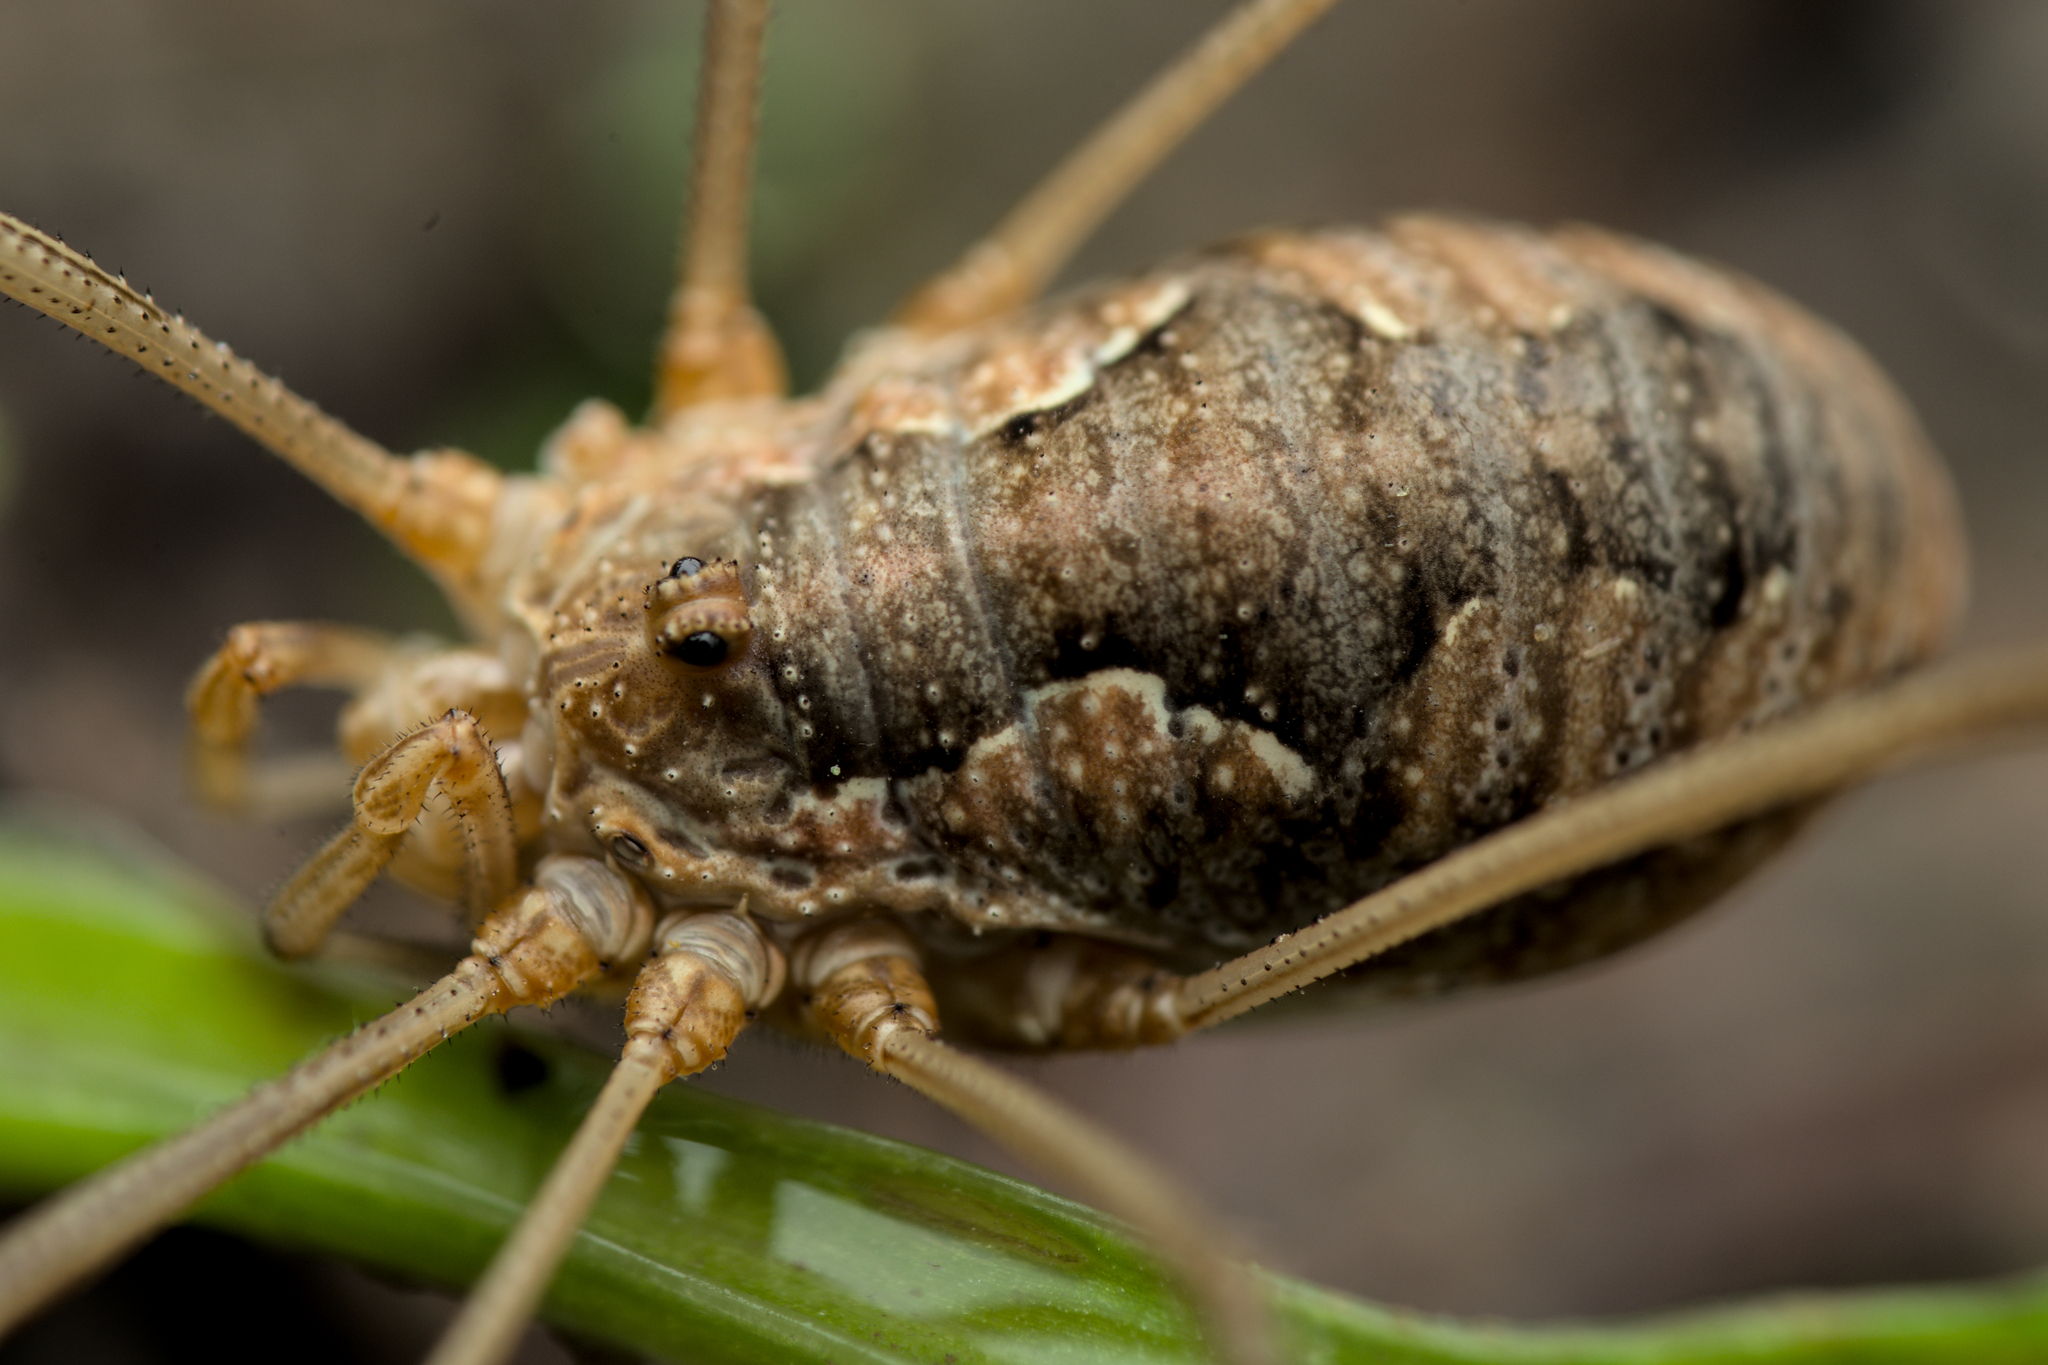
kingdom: Animalia
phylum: Arthropoda
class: Arachnida
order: Opiliones
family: Phalangiidae
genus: Phalangium
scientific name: Phalangium opilio
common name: Daddy longleg
